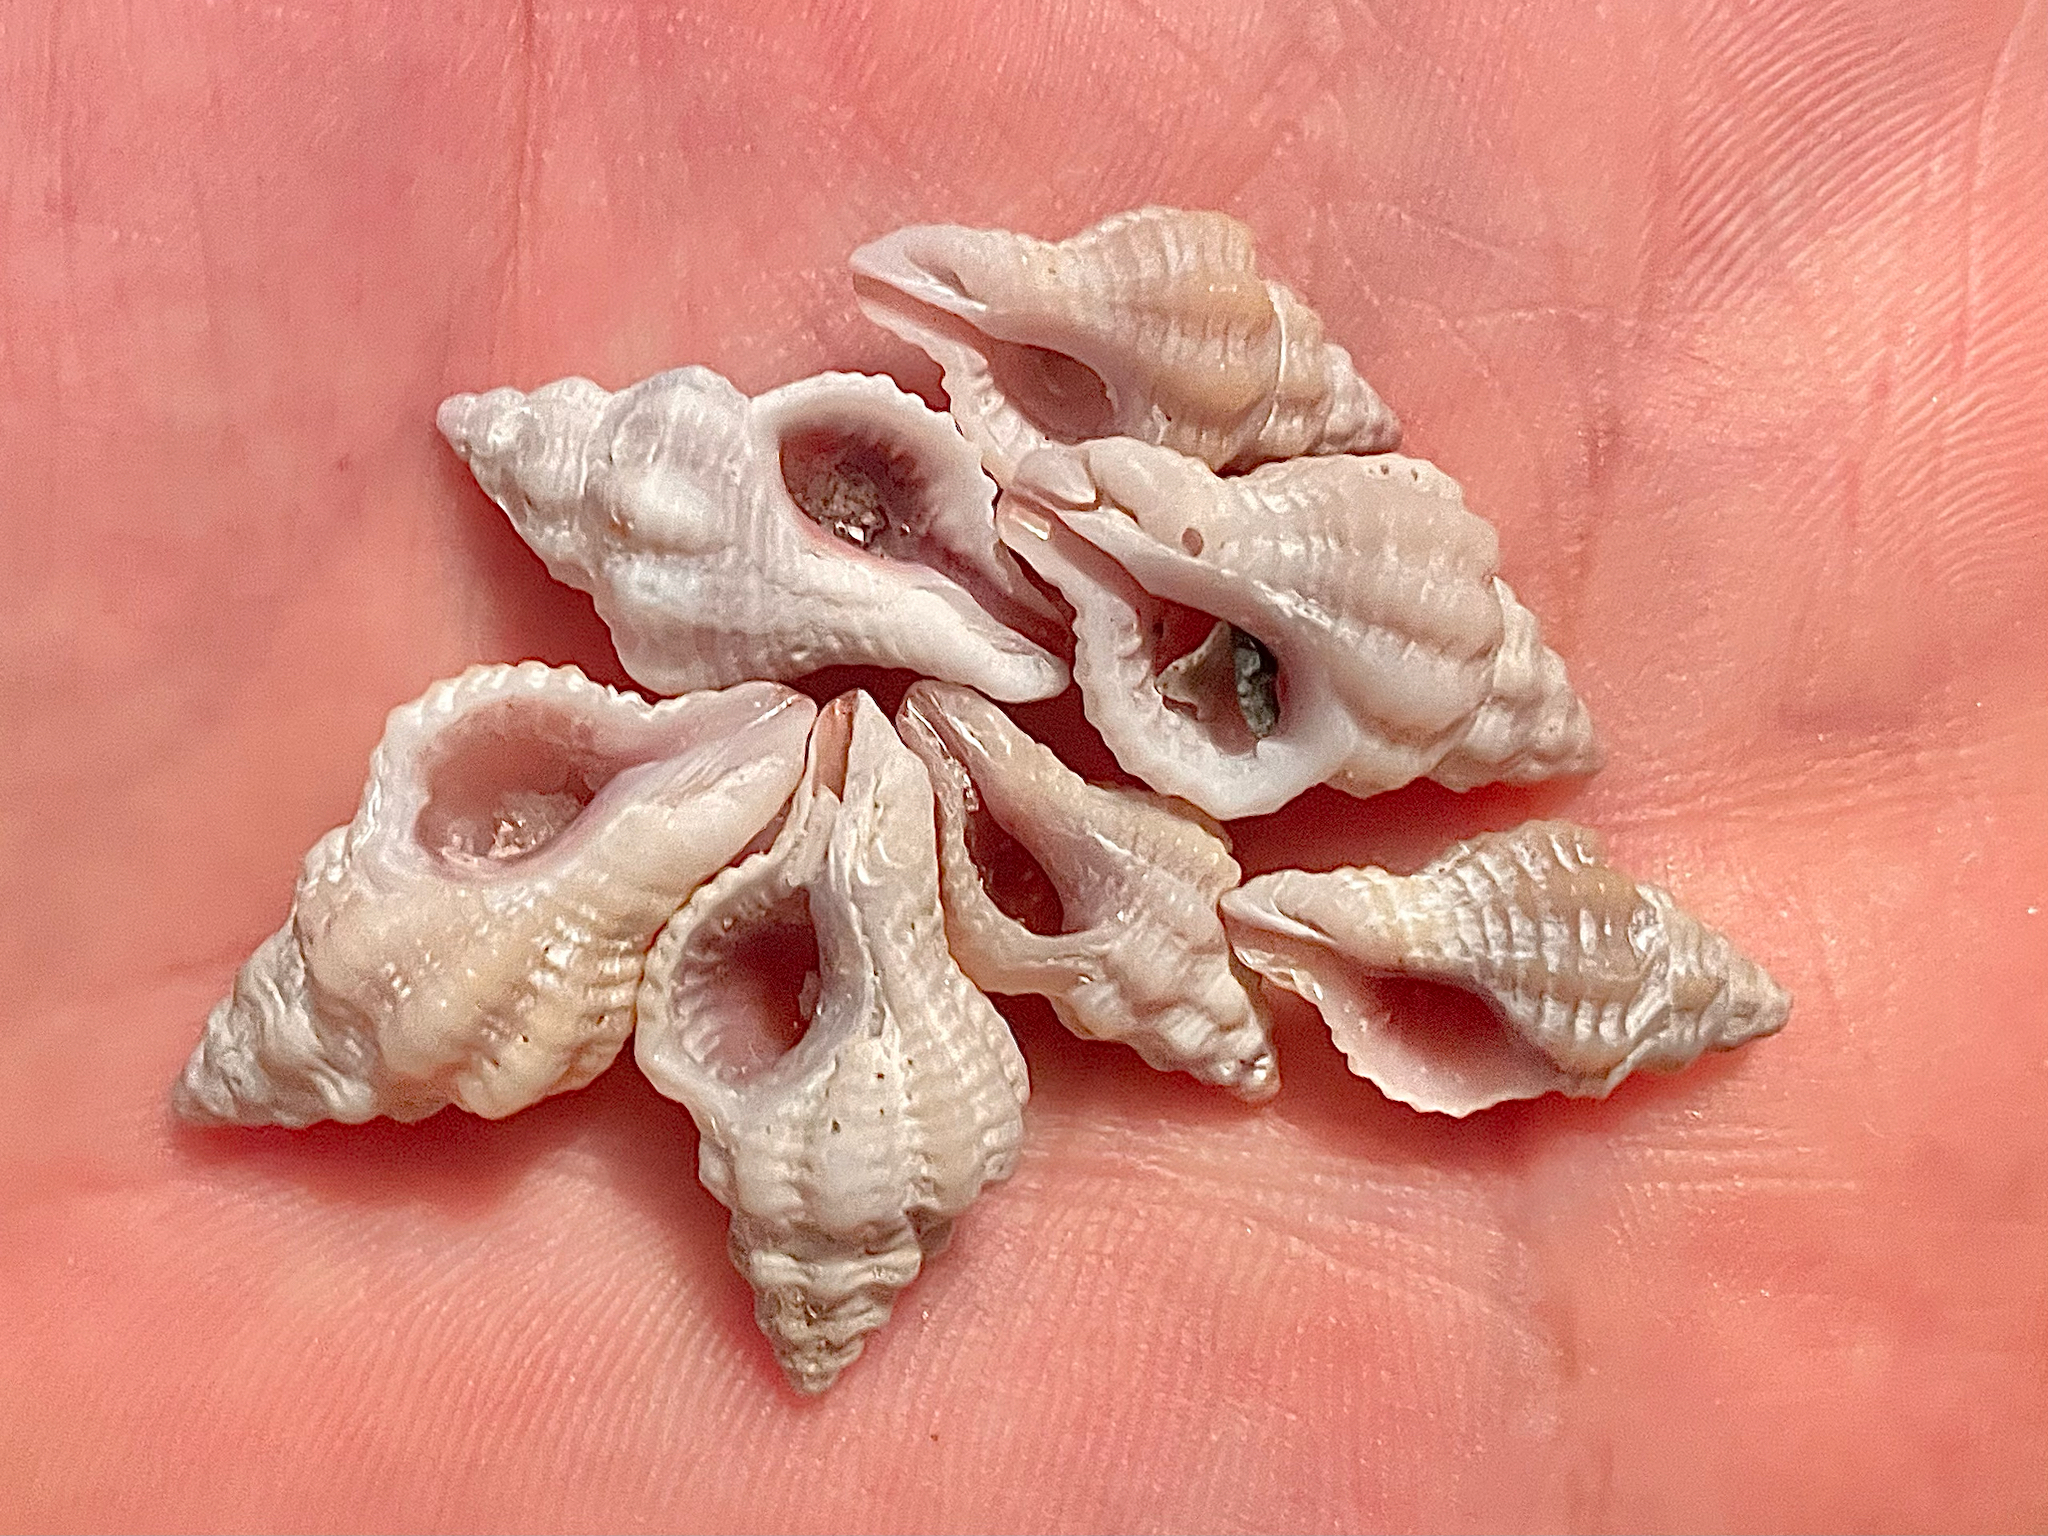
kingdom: Animalia
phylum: Mollusca
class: Gastropoda
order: Neogastropoda
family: Muricidae
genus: Calotrophon
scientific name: Calotrophon ostrearum
